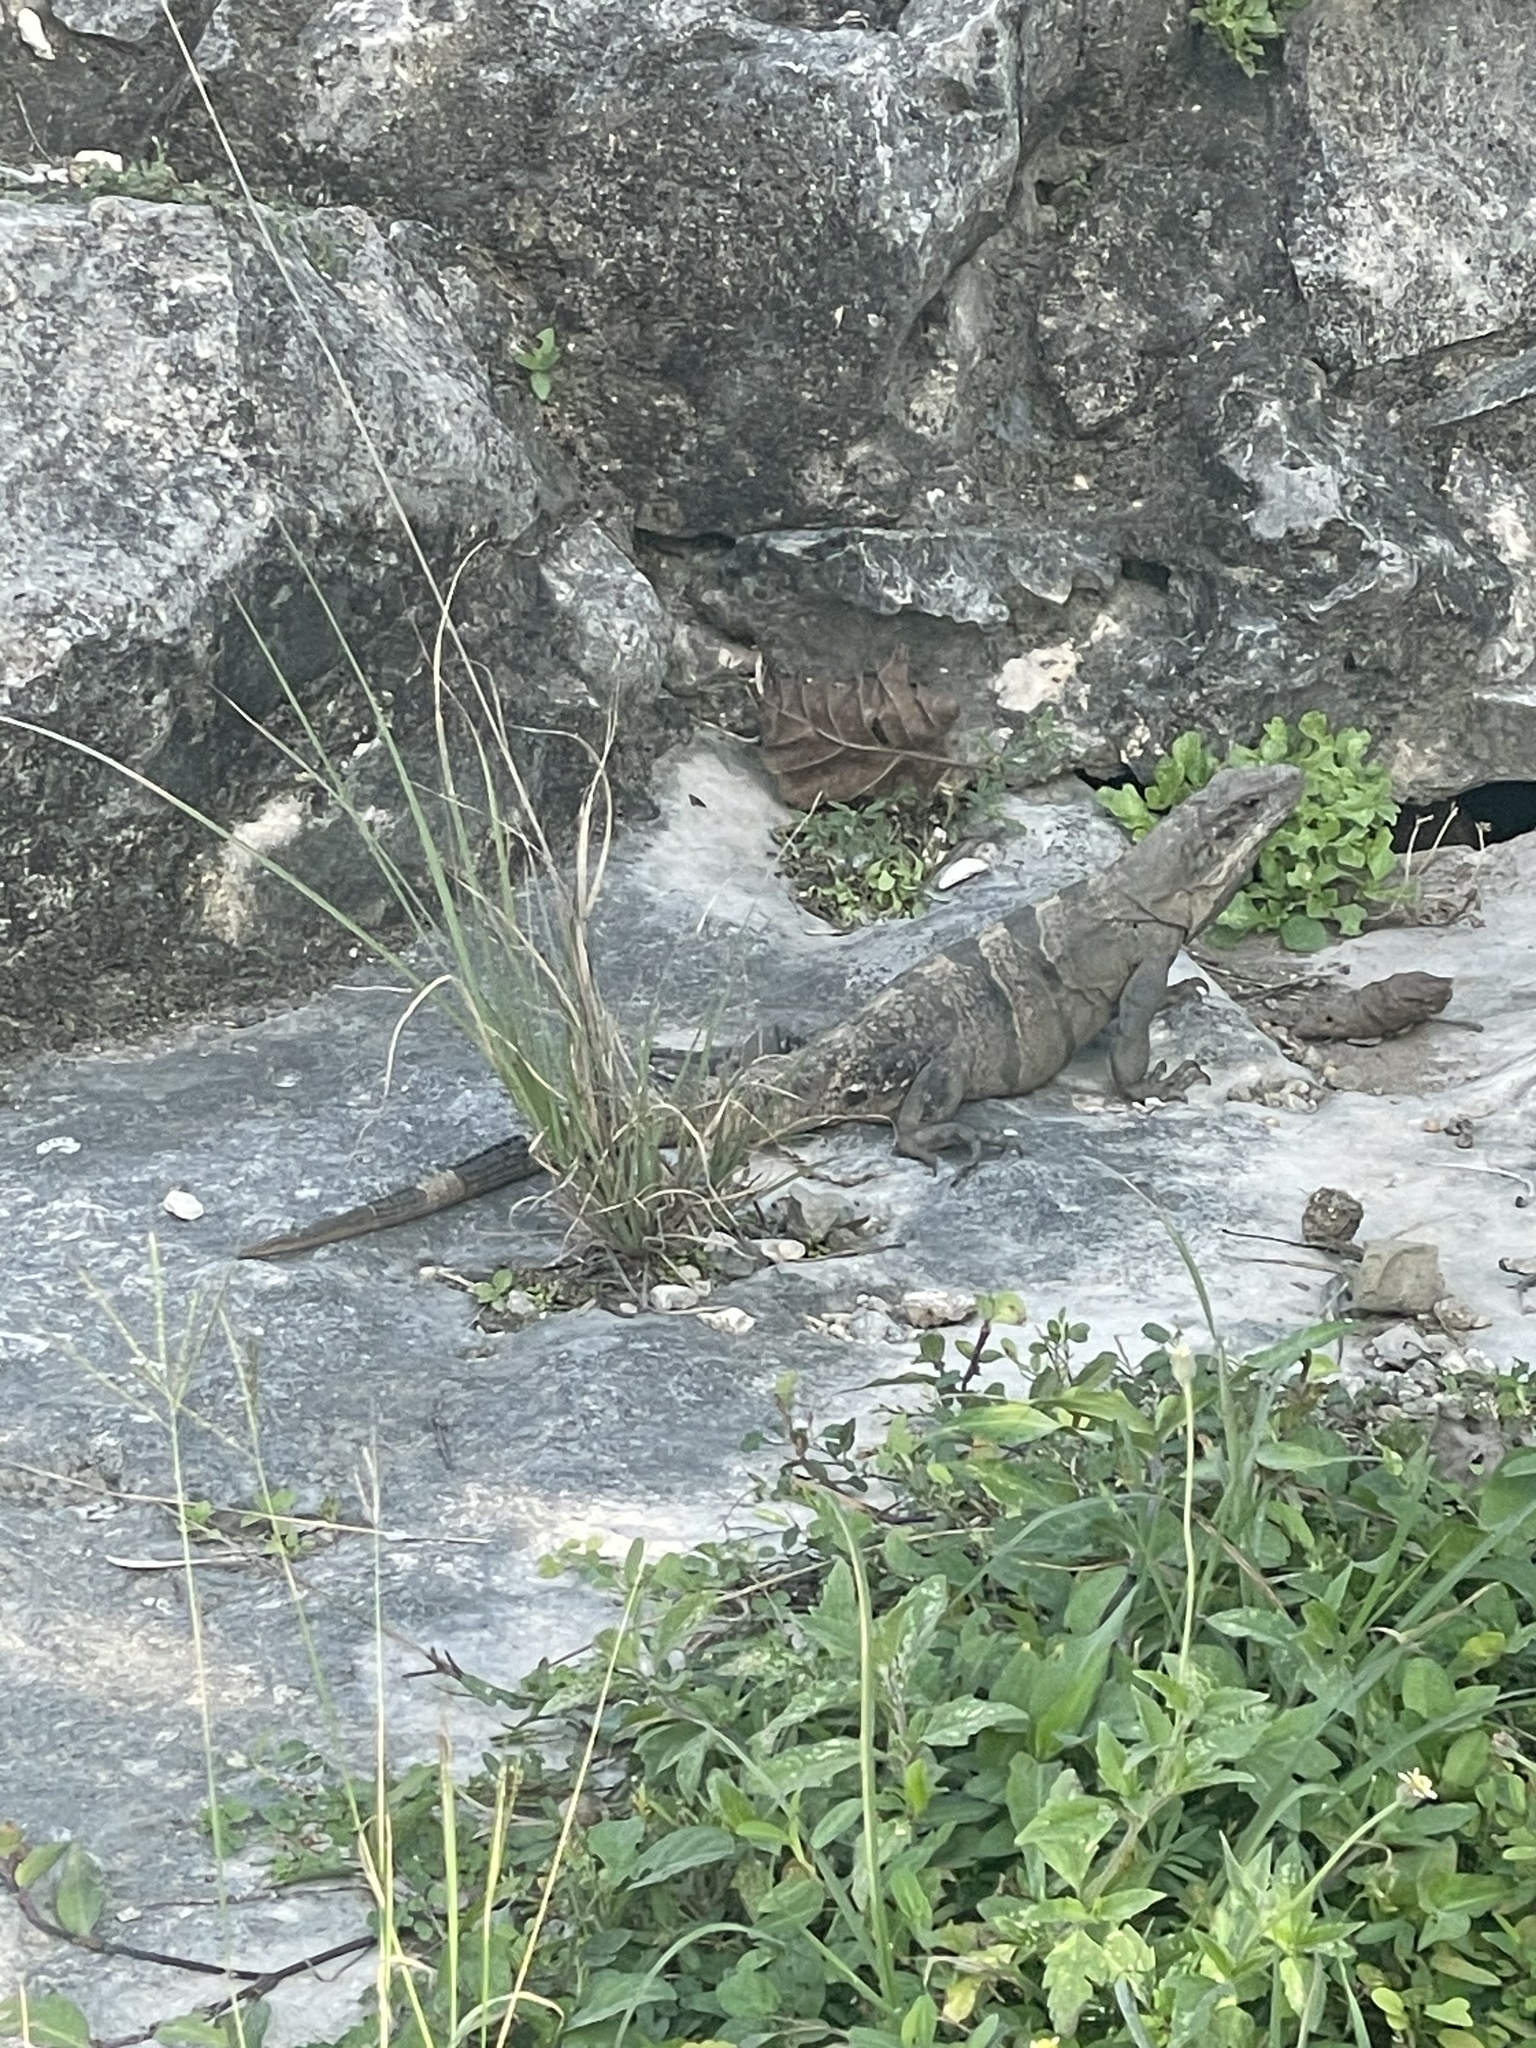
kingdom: Animalia
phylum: Chordata
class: Squamata
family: Iguanidae
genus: Ctenosaura
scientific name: Ctenosaura similis
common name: Black spiny-tailed iguana
